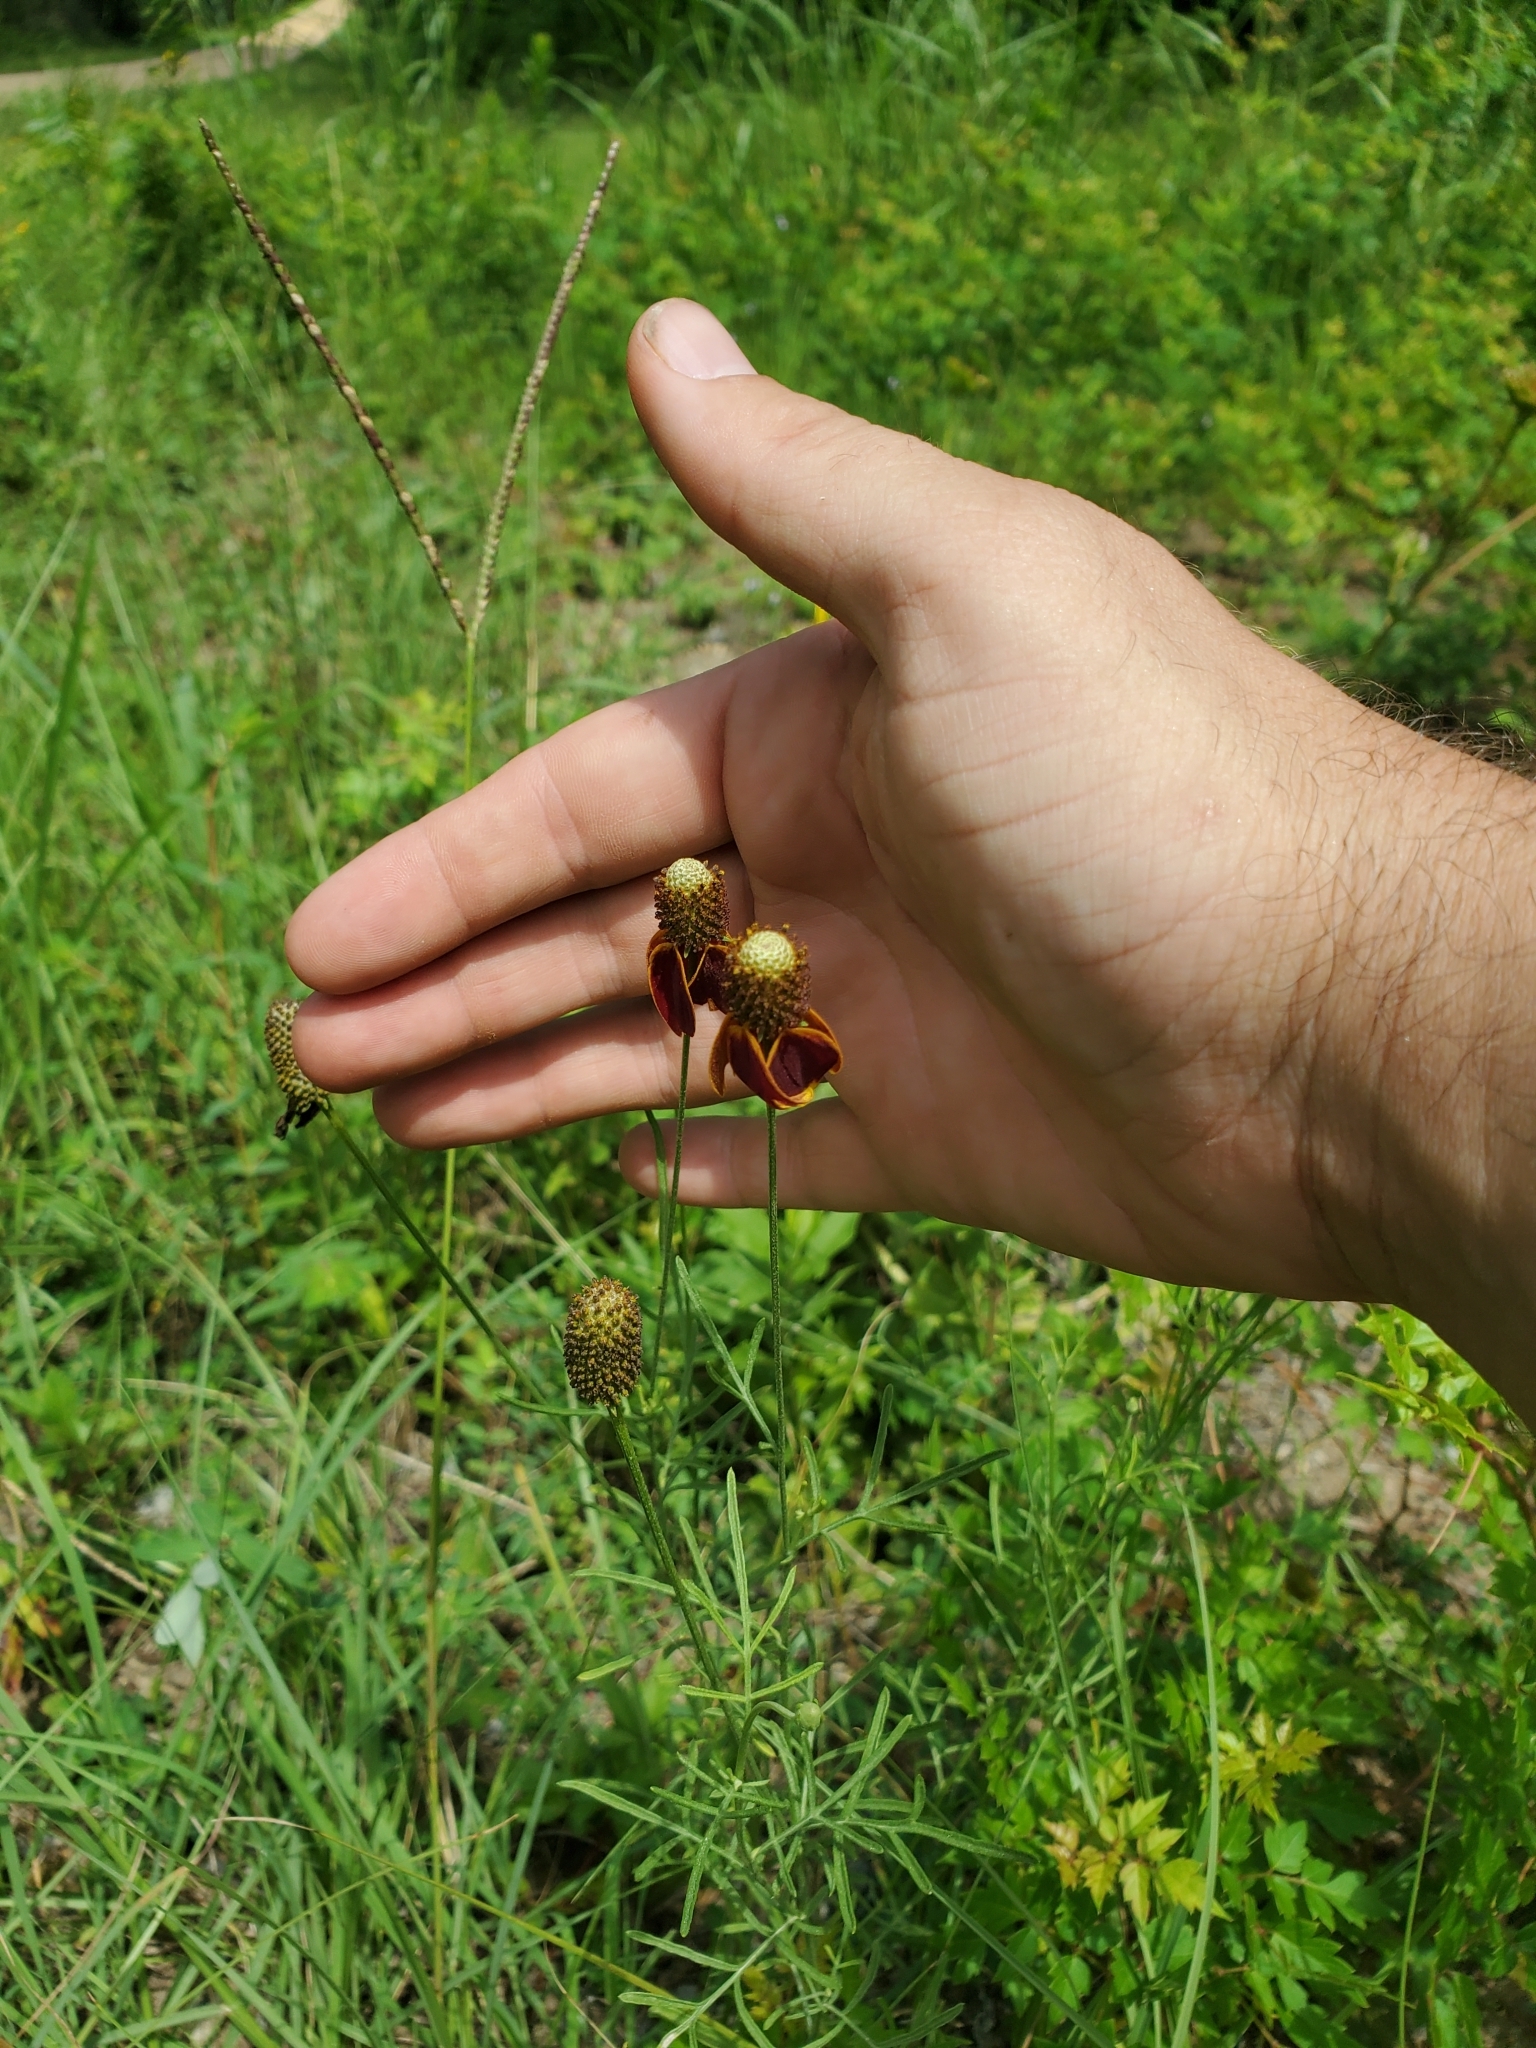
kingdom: Plantae
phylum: Tracheophyta
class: Magnoliopsida
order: Asterales
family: Asteraceae
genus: Ratibida
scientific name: Ratibida columnifera
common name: Prairie coneflower
